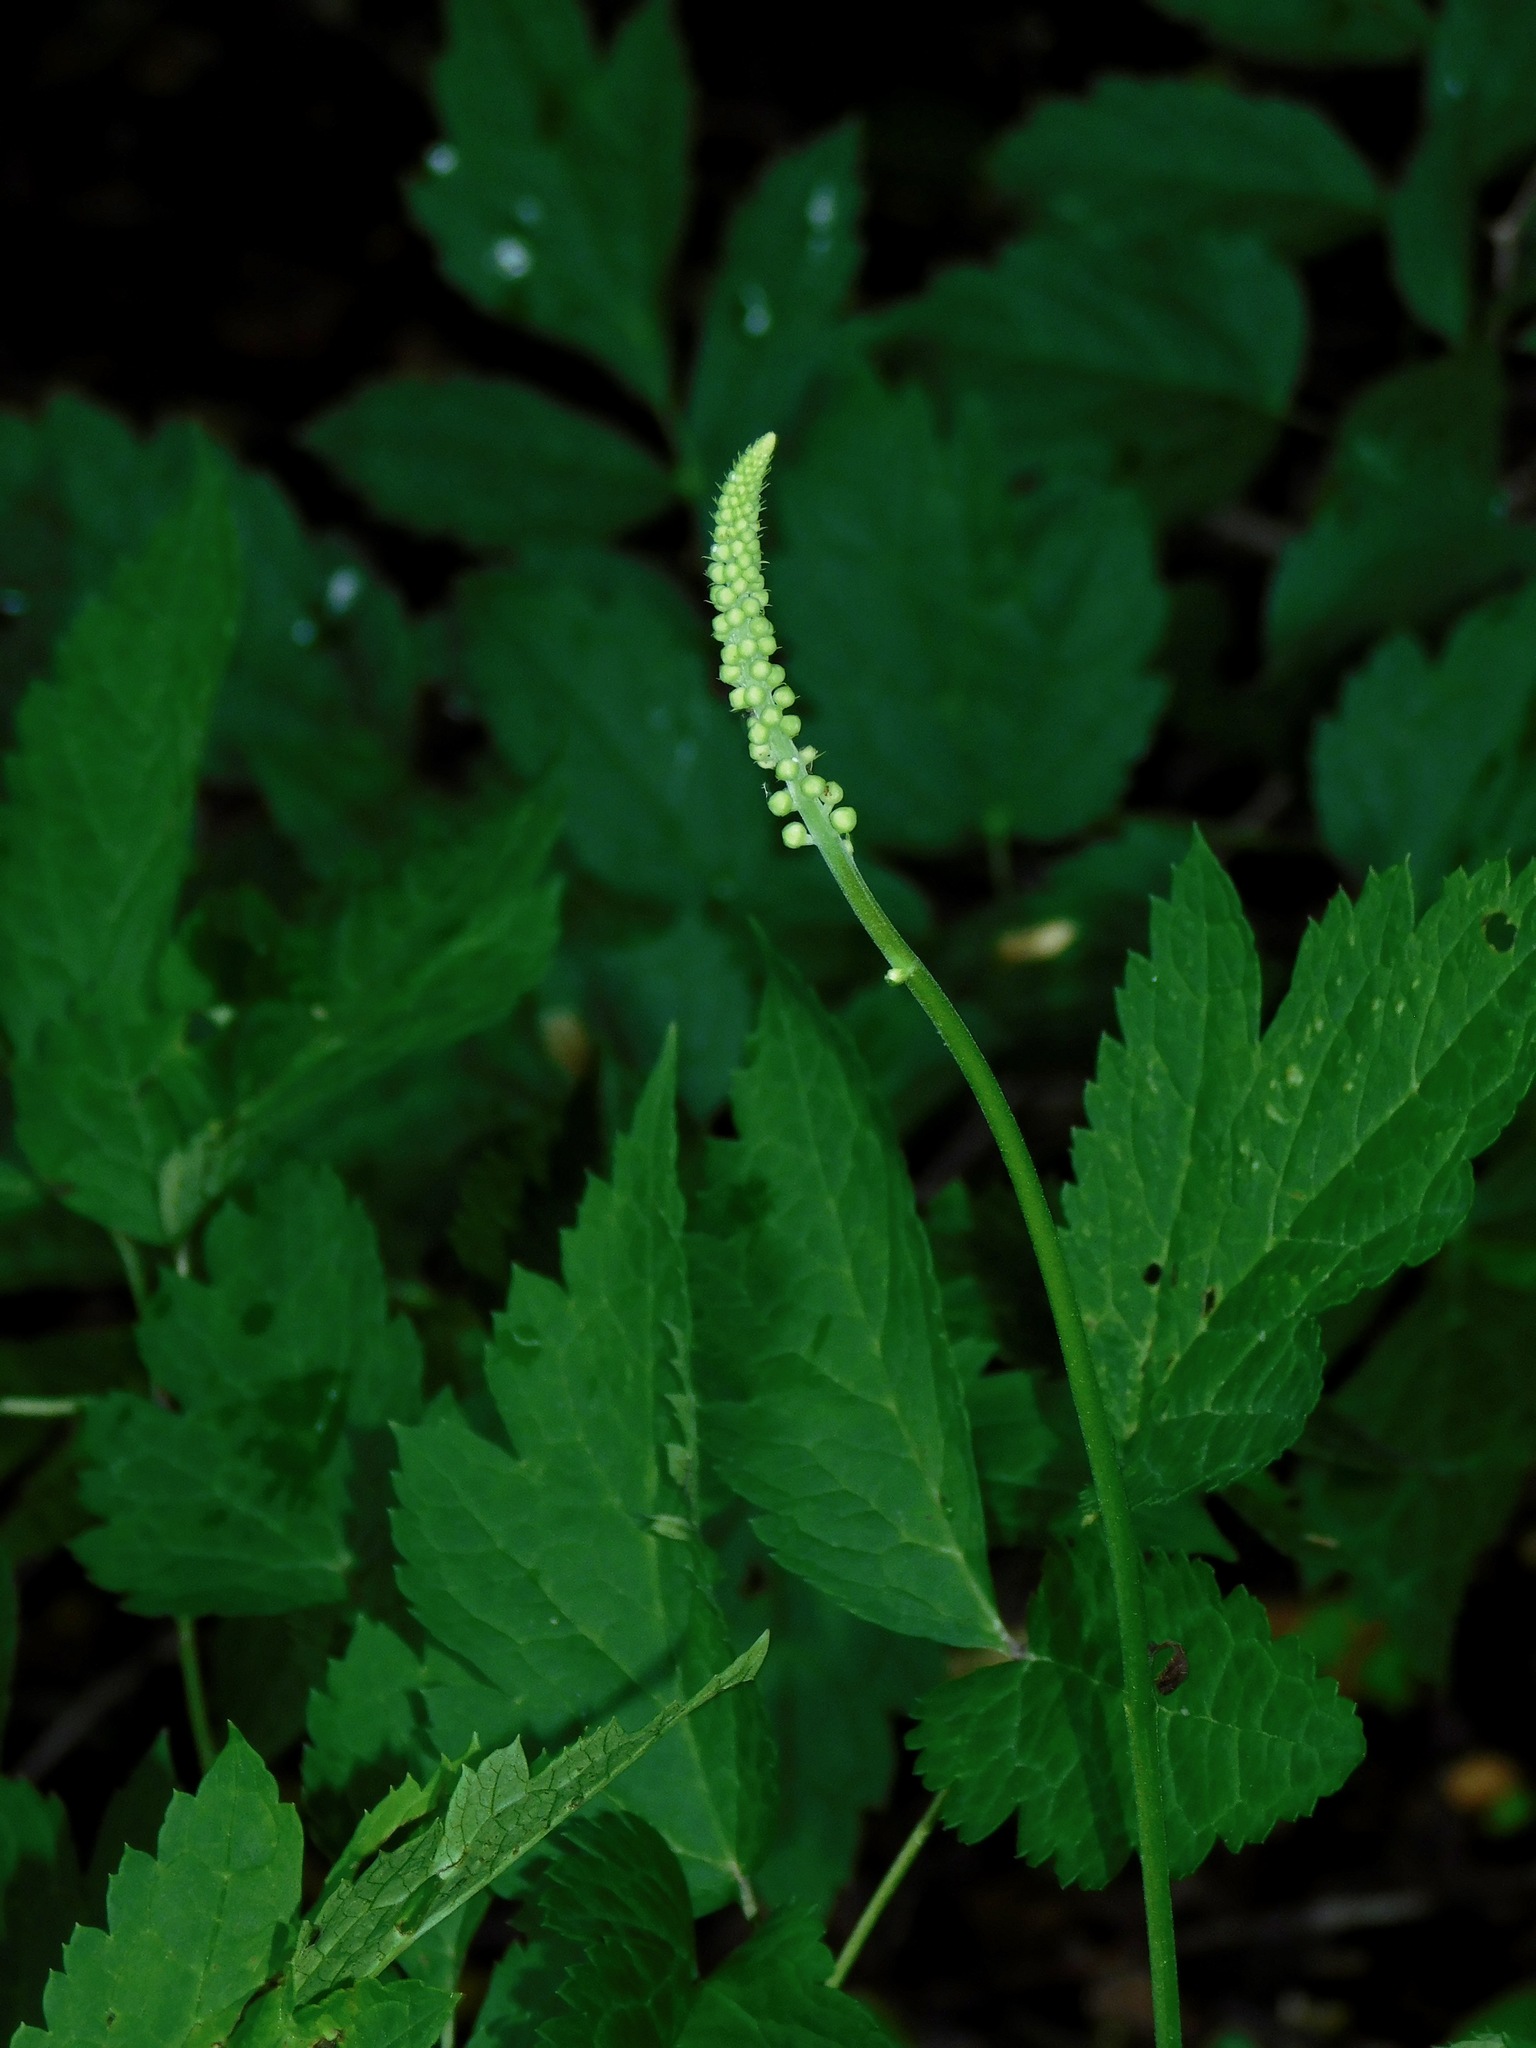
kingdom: Plantae
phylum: Tracheophyta
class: Magnoliopsida
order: Ranunculales
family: Ranunculaceae
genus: Actaea
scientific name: Actaea racemosa
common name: Black cohosh
